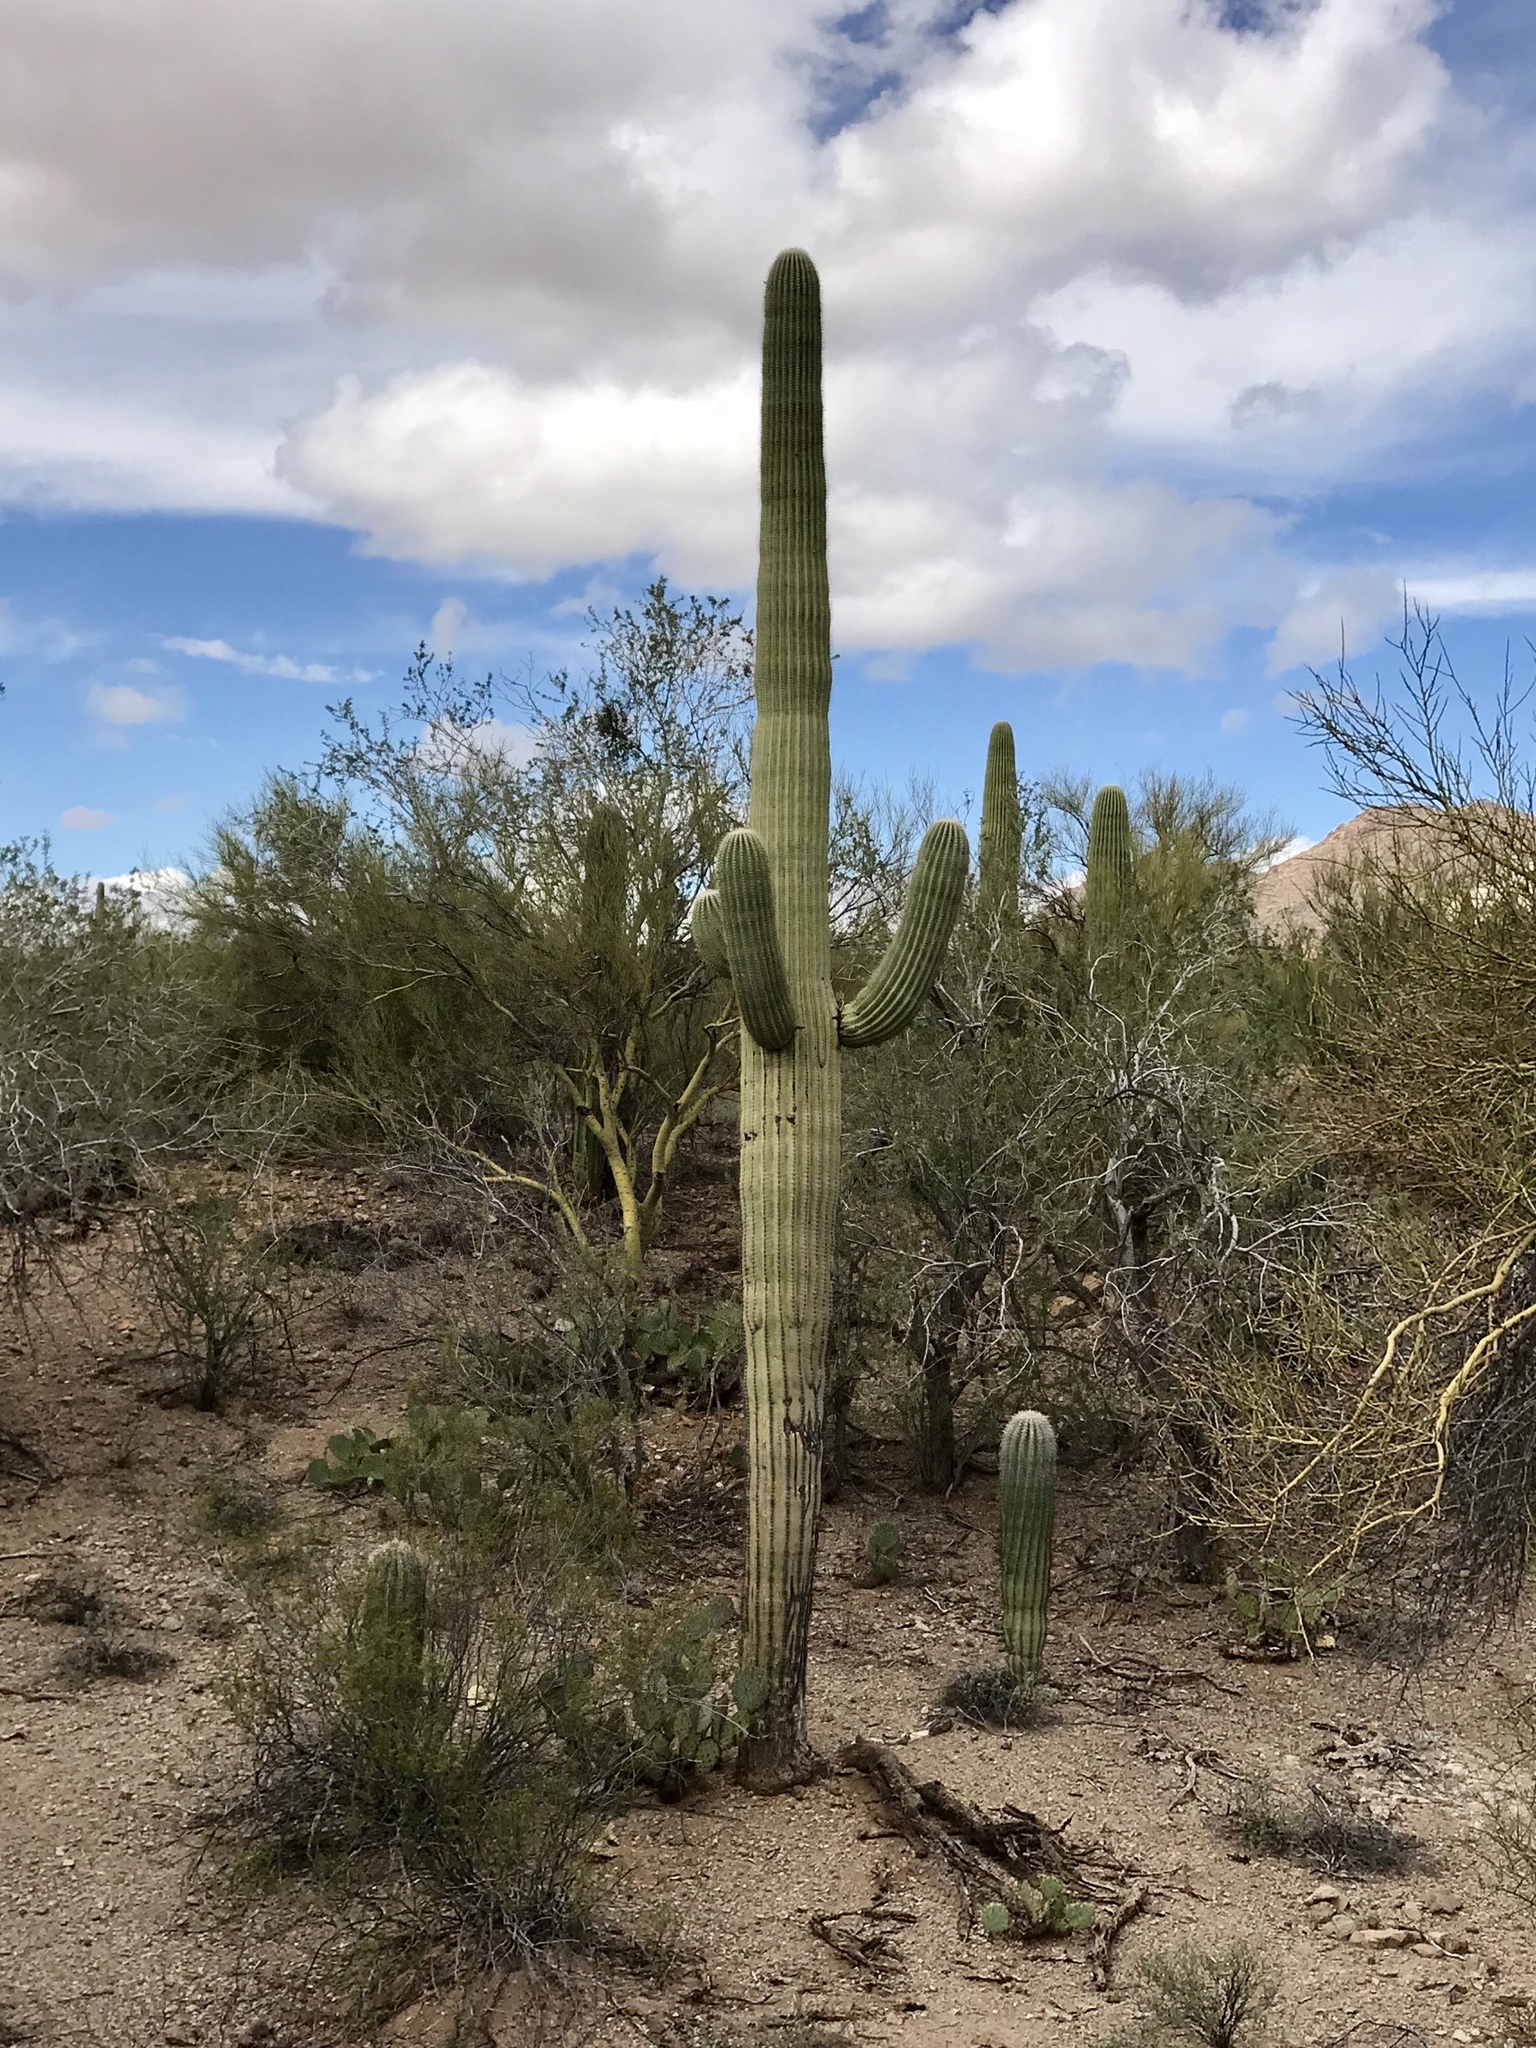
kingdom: Plantae
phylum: Tracheophyta
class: Magnoliopsida
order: Caryophyllales
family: Cactaceae
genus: Carnegiea
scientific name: Carnegiea gigantea
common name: Saguaro
